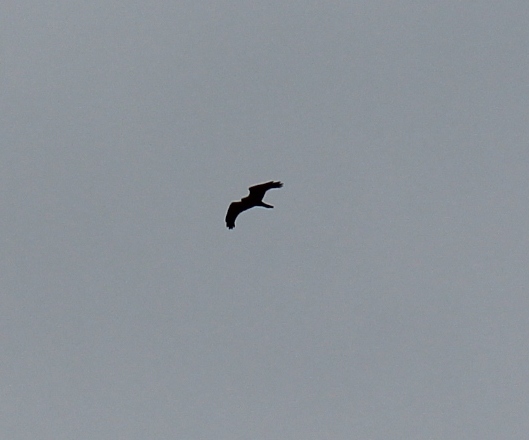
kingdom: Animalia
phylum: Chordata
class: Aves
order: Accipitriformes
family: Accipitridae
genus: Circus
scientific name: Circus aeruginosus
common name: Western marsh harrier
